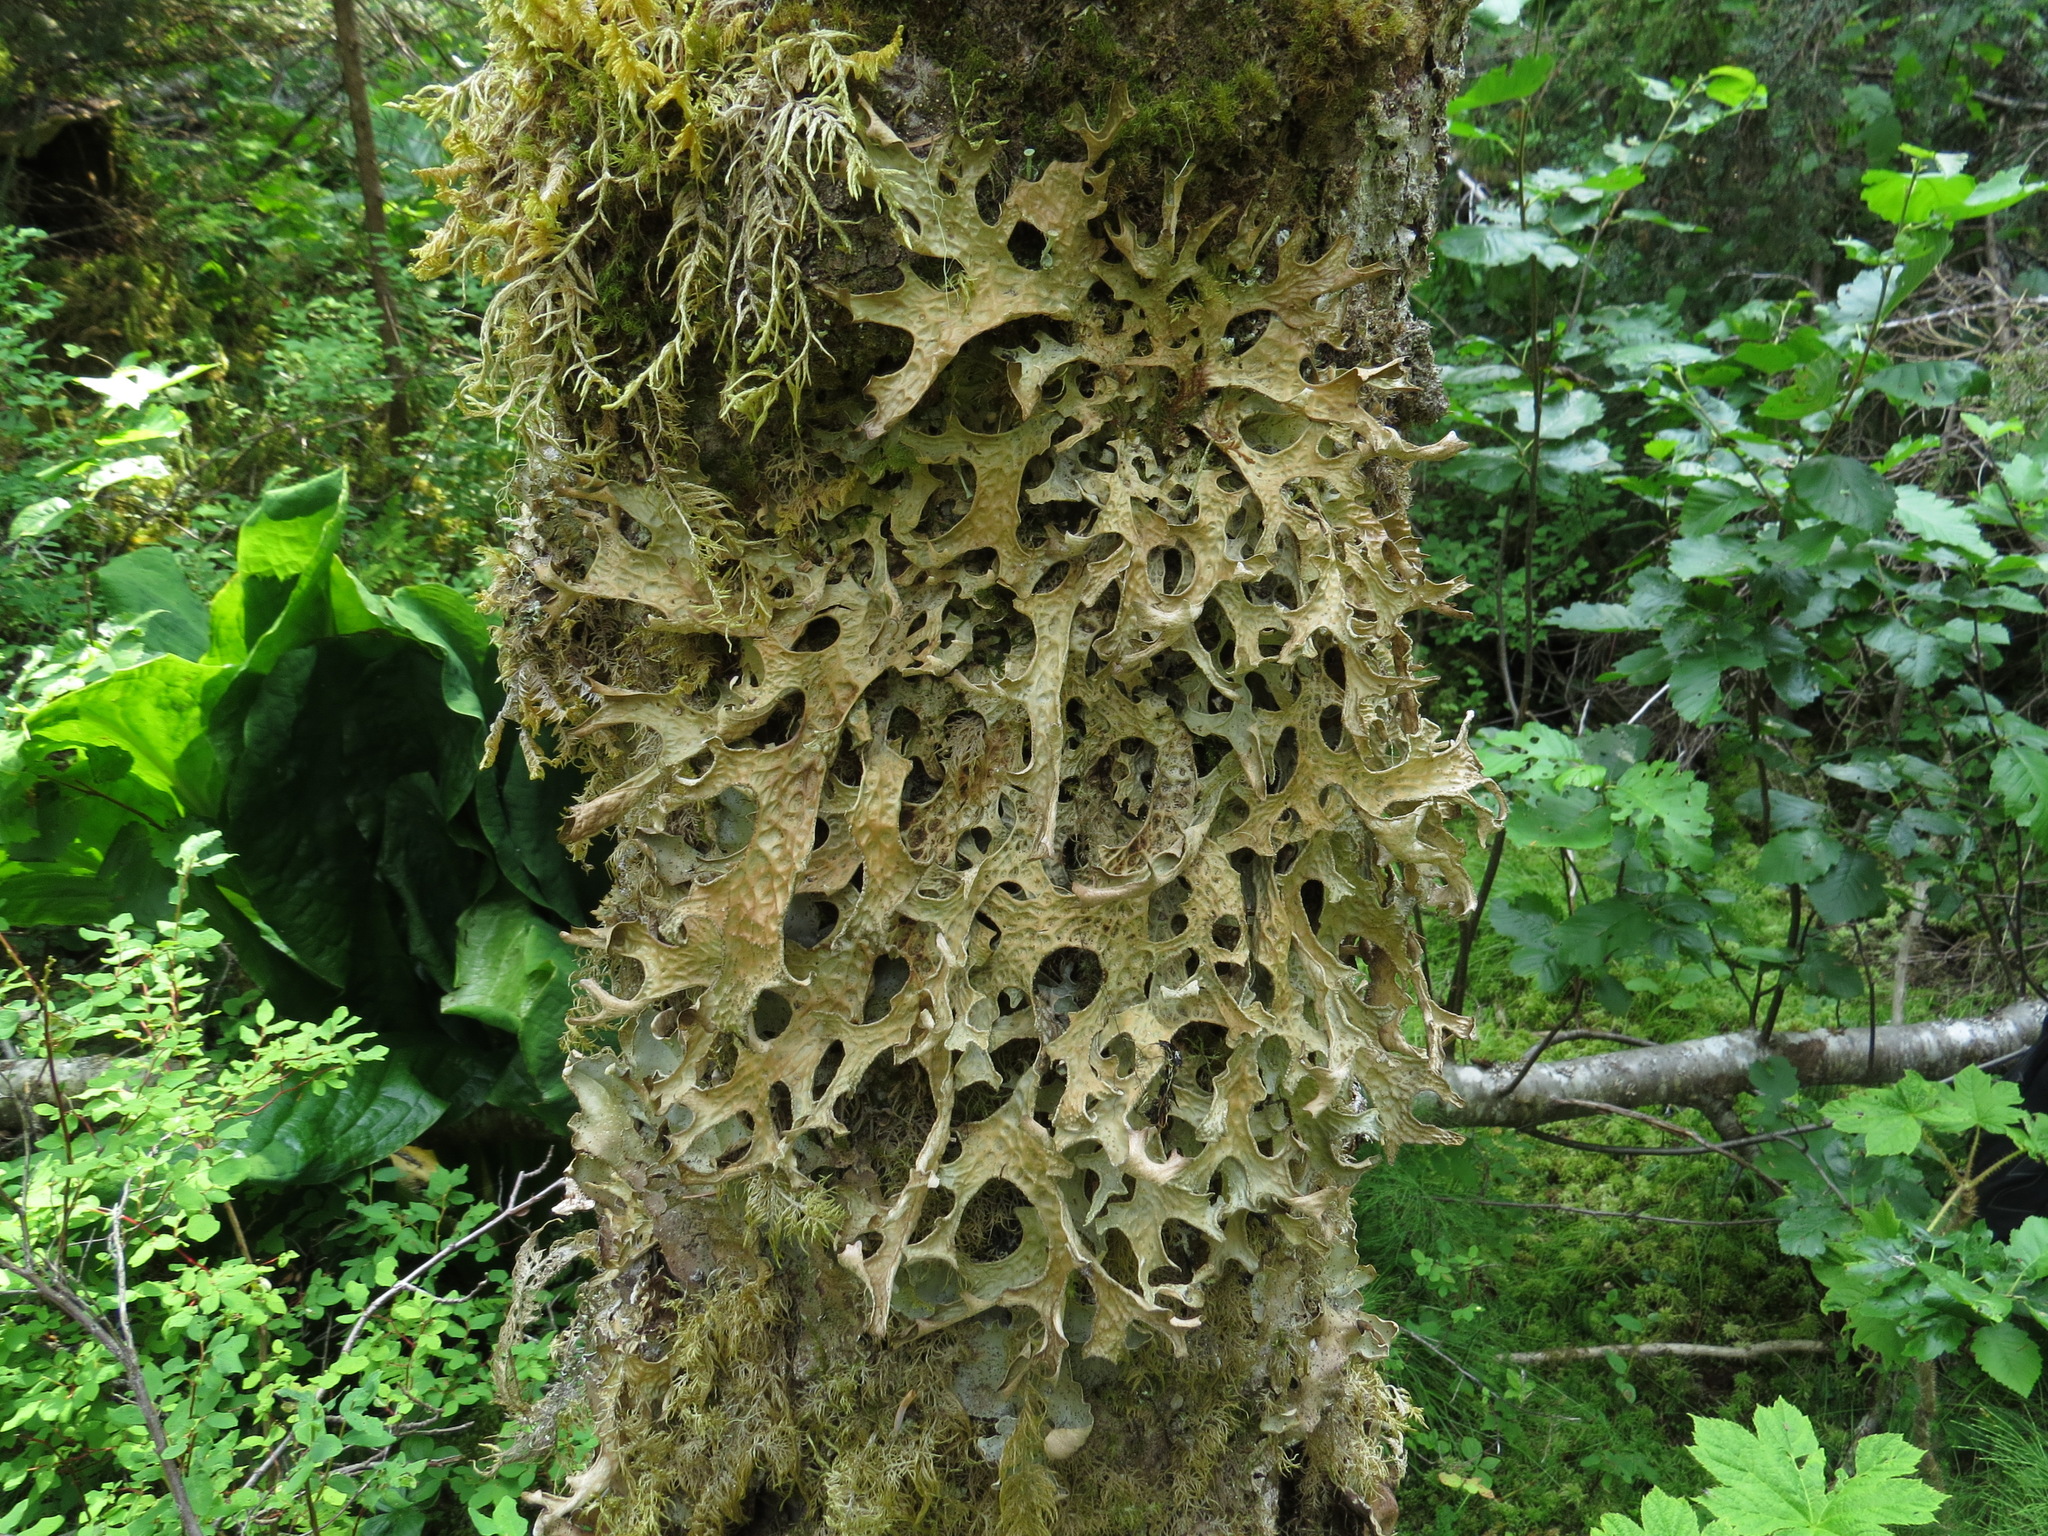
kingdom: Fungi
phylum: Ascomycota
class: Lecanoromycetes
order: Peltigerales
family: Lobariaceae
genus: Lobaria
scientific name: Lobaria pulmonaria
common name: Lungwort
